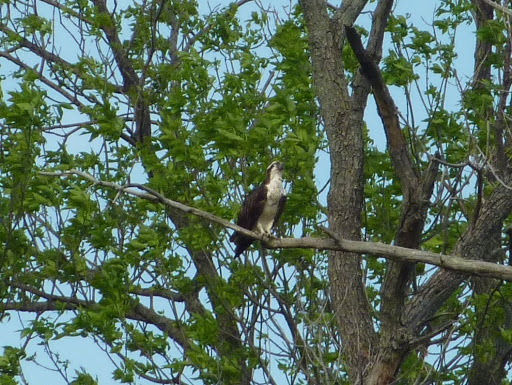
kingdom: Animalia
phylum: Chordata
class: Aves
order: Accipitriformes
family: Pandionidae
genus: Pandion
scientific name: Pandion haliaetus
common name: Osprey
